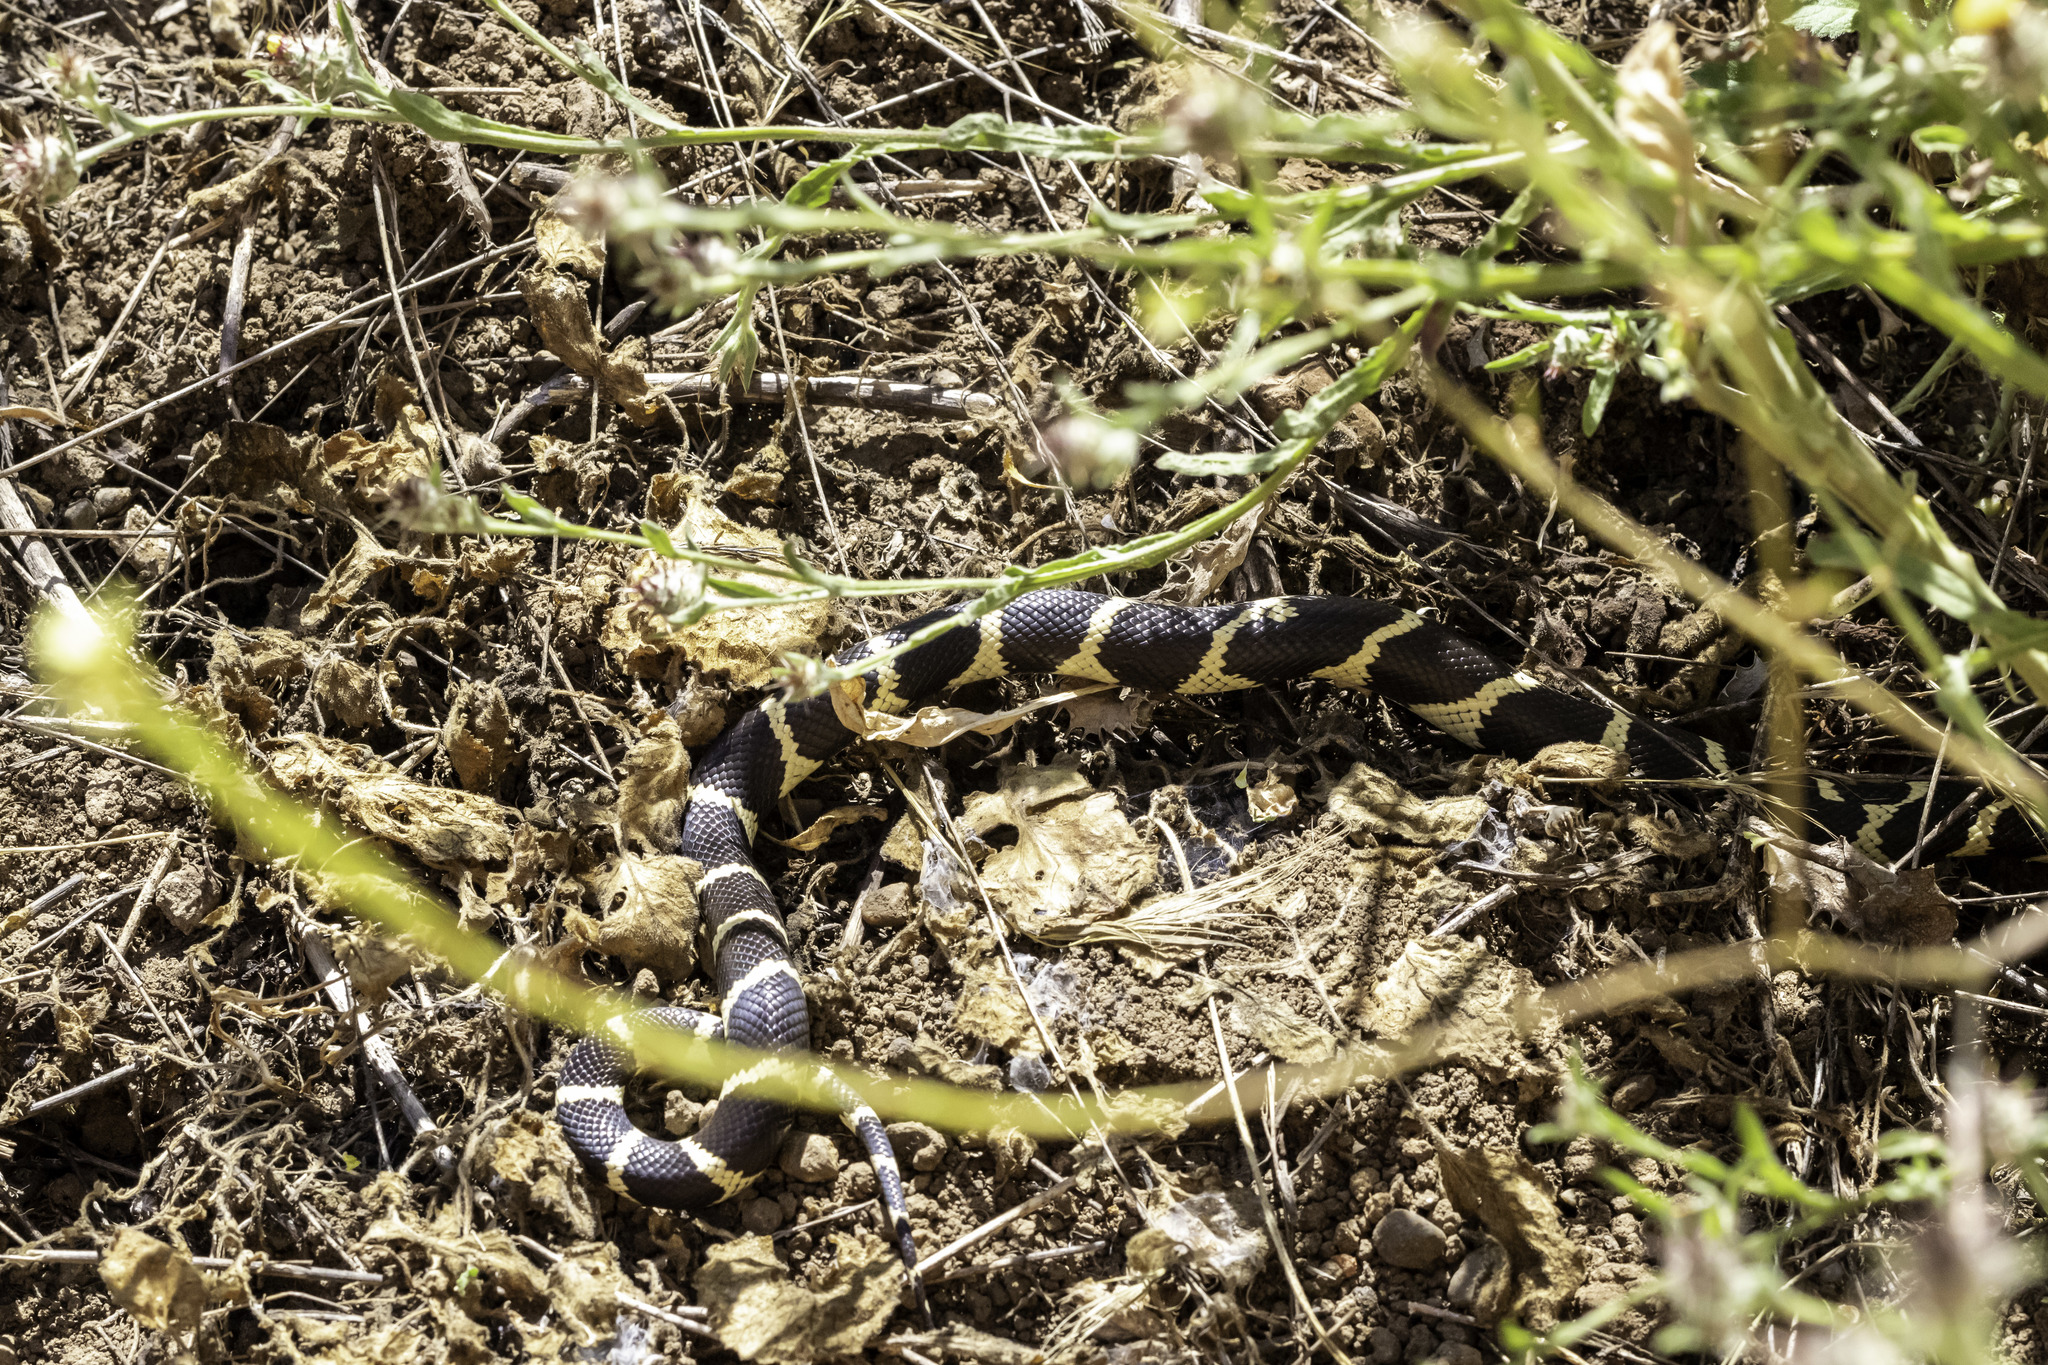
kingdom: Animalia
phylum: Chordata
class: Squamata
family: Colubridae
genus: Lampropeltis
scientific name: Lampropeltis californiae
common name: California kingsnake
